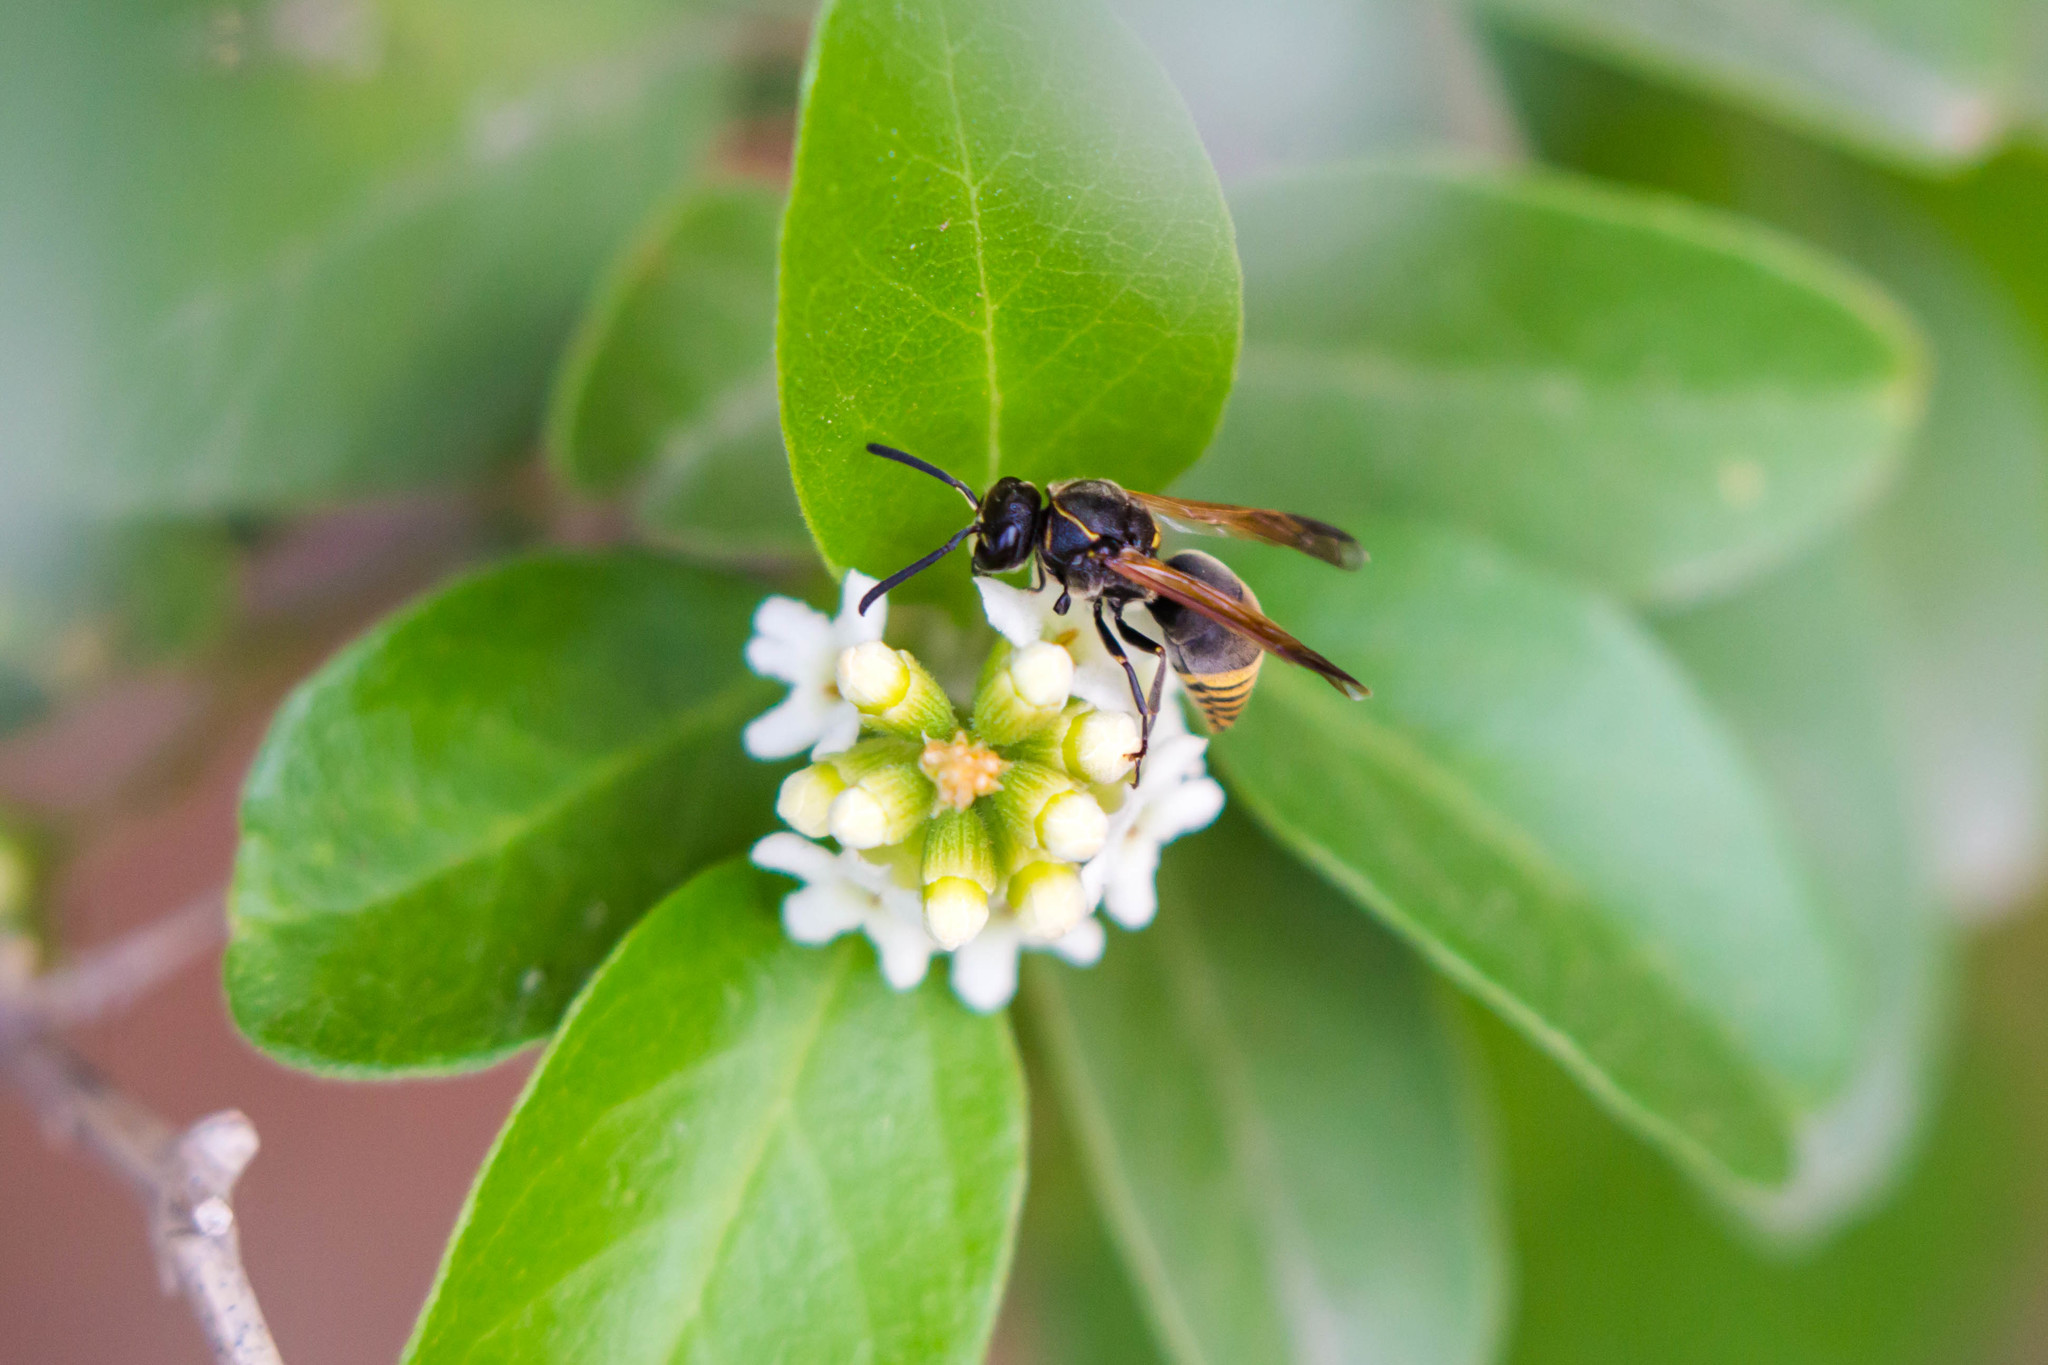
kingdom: Animalia
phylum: Arthropoda
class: Insecta
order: Hymenoptera
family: Eumenidae
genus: Pachodynerus
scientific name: Pachodynerus
